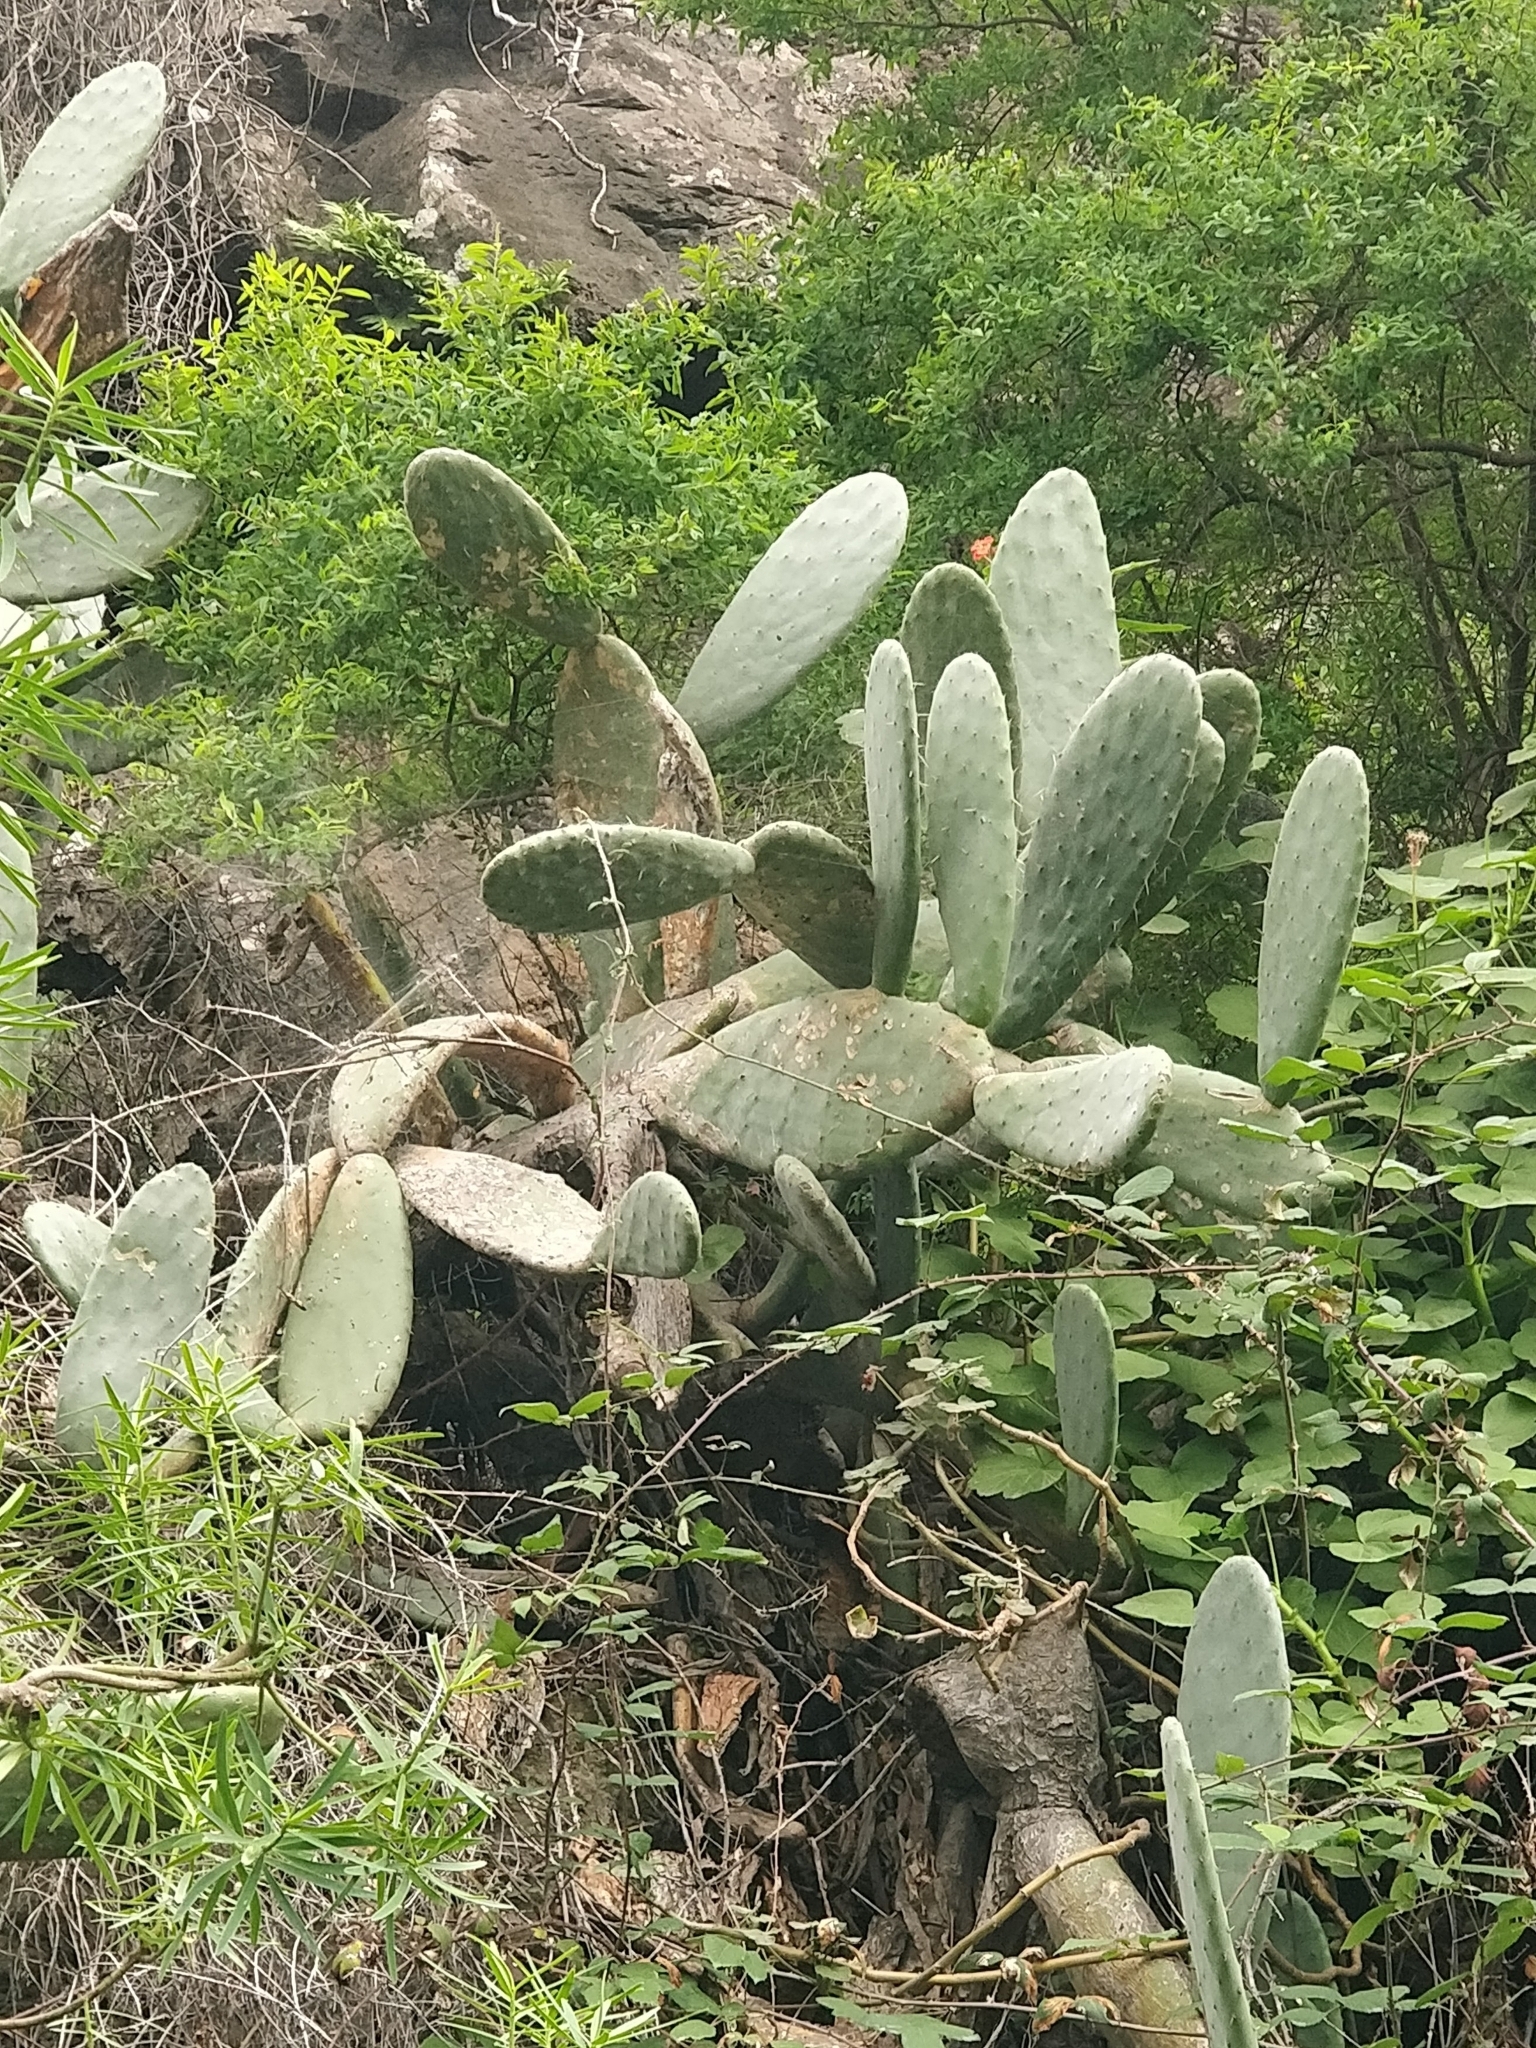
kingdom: Plantae
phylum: Tracheophyta
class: Magnoliopsida
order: Caryophyllales
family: Cactaceae
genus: Opuntia
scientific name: Opuntia ficus-indica
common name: Barbary fig
